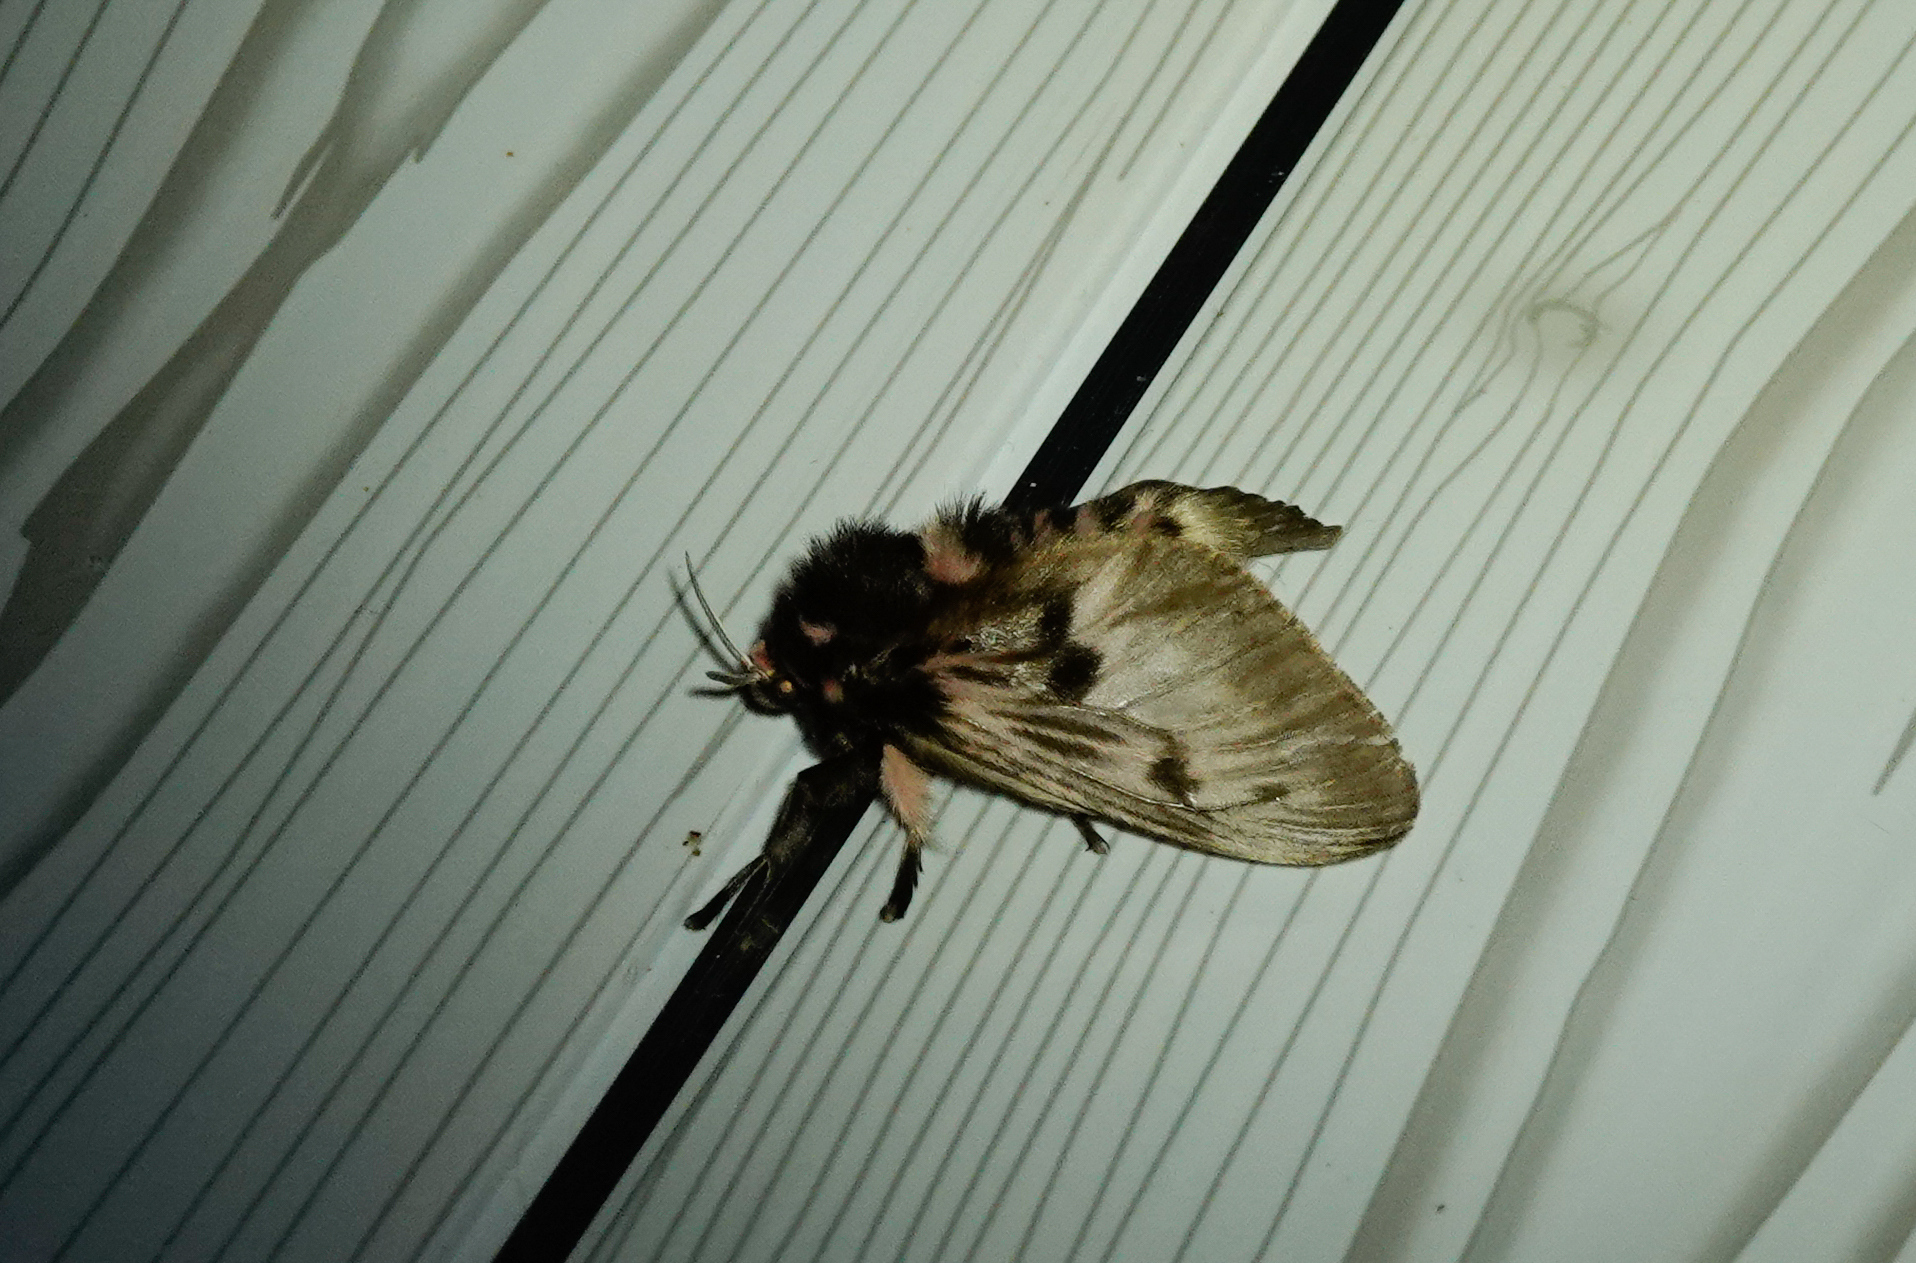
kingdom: Animalia
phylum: Arthropoda
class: Insecta
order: Lepidoptera
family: Megalopygidae
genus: Megalopyge
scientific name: Megalopyge lanata
